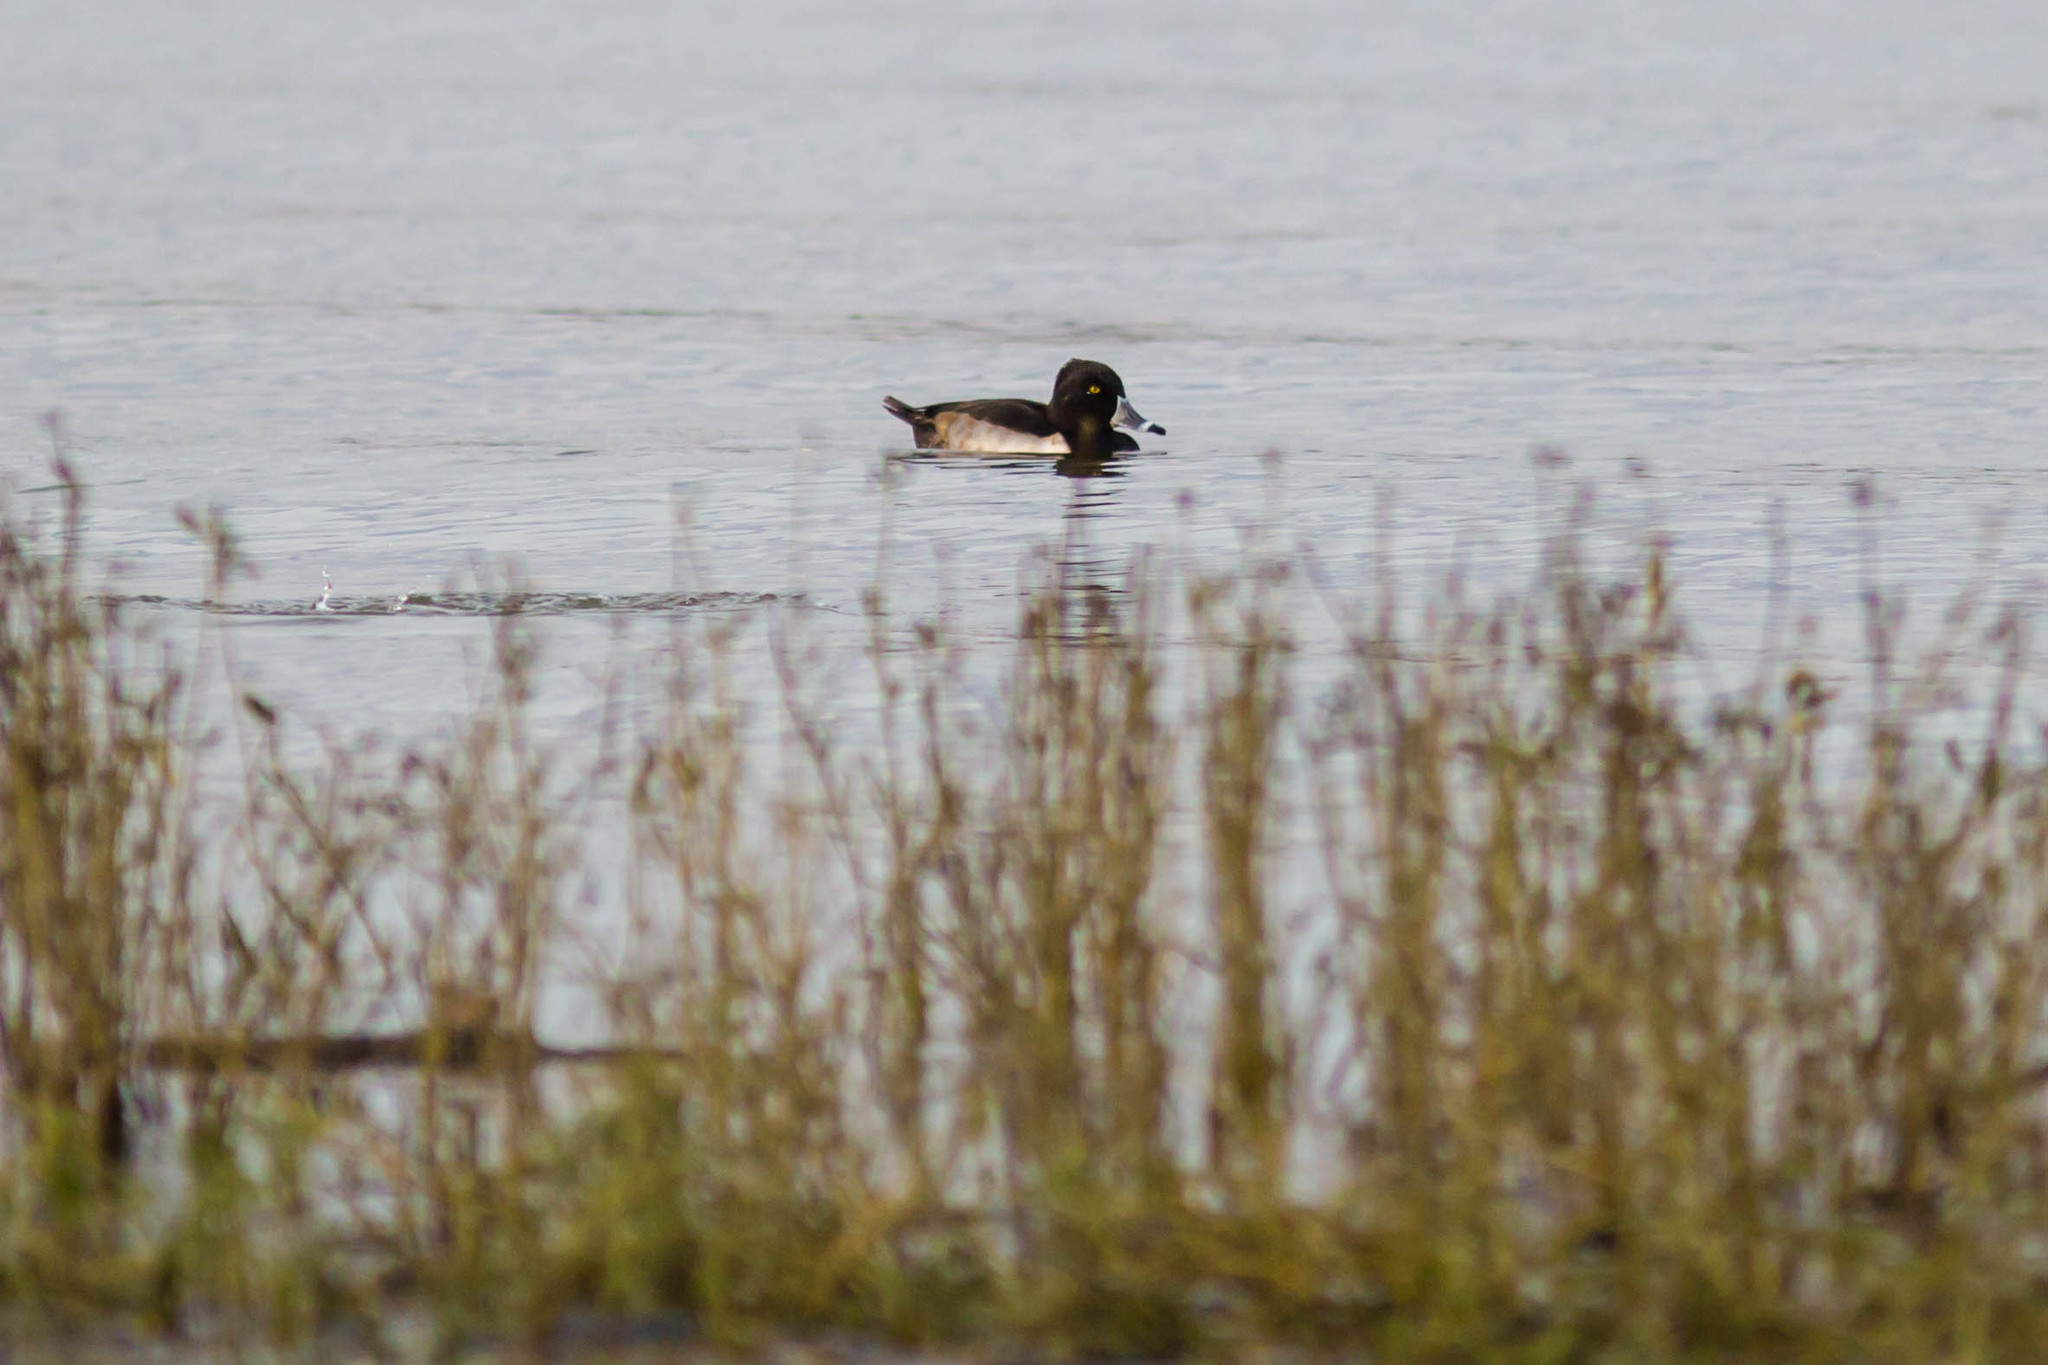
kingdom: Animalia
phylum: Chordata
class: Aves
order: Anseriformes
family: Anatidae
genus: Aythya
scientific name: Aythya collaris
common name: Ring-necked duck
